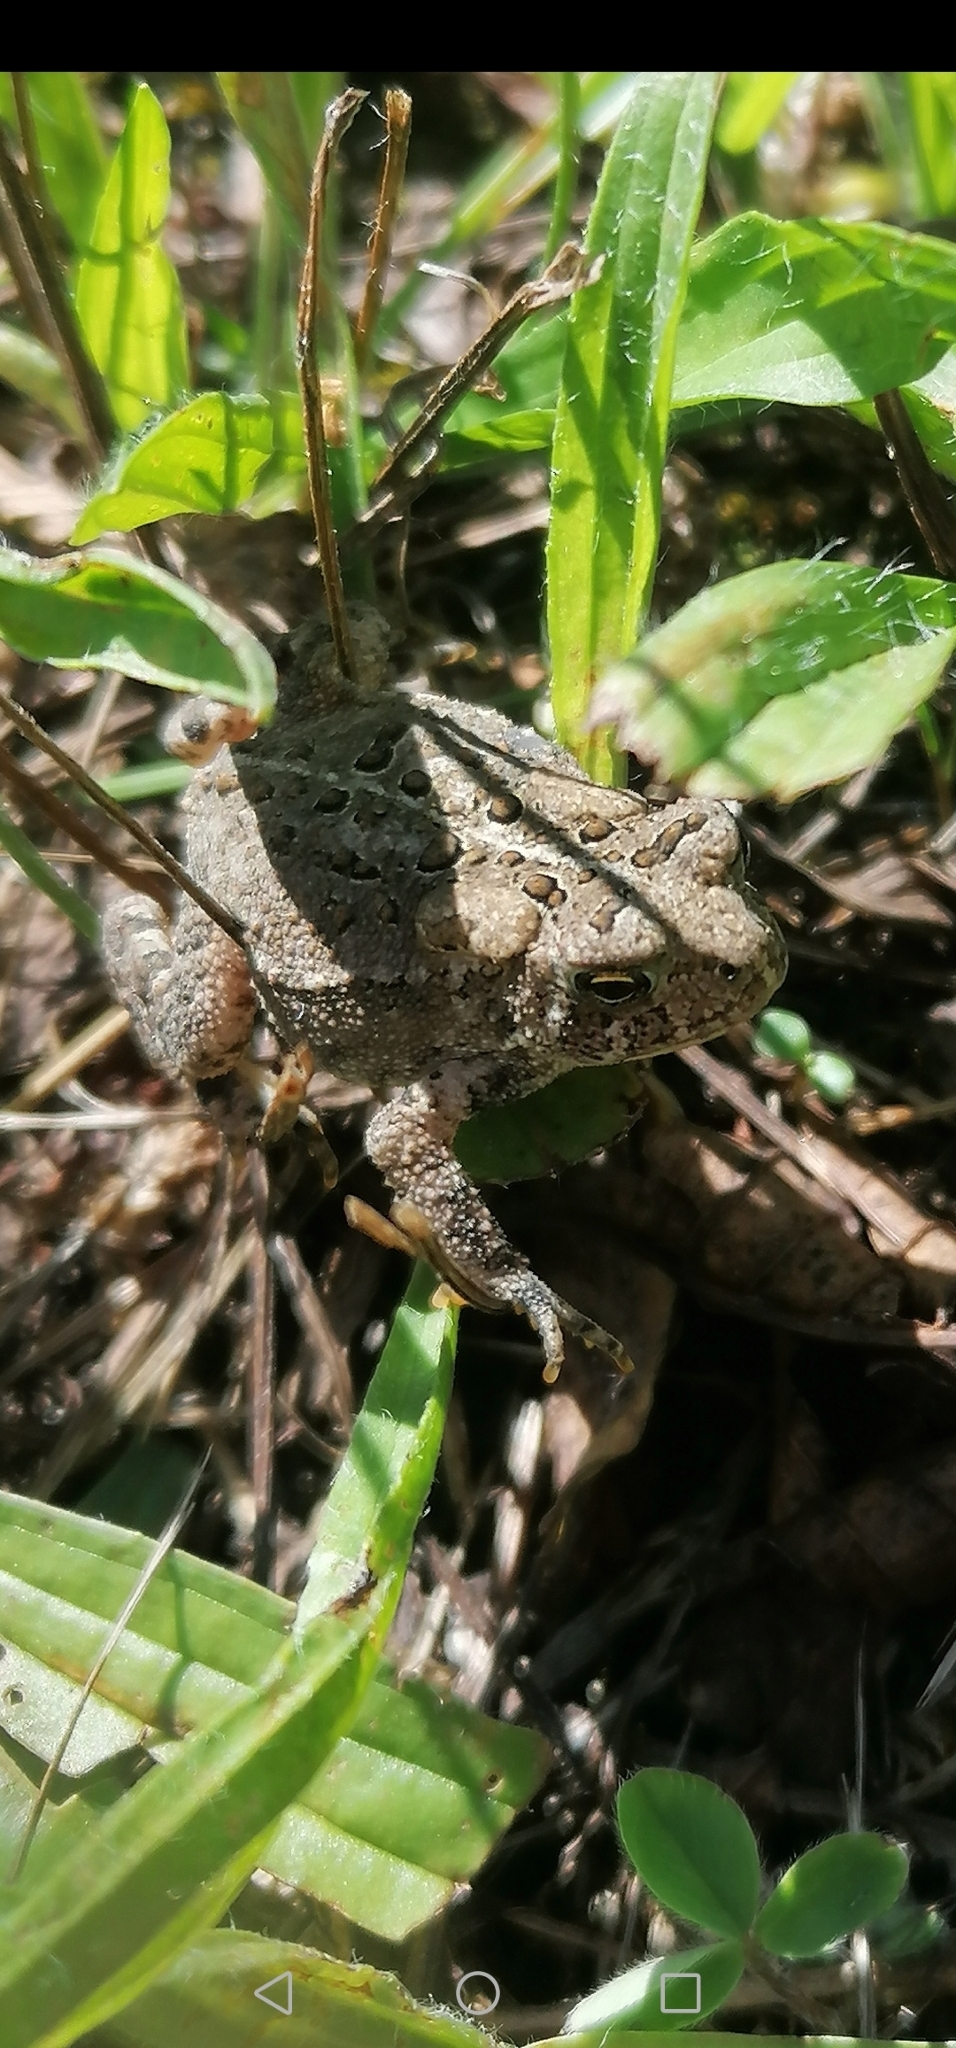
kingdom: Animalia
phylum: Chordata
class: Amphibia
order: Anura
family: Bufonidae
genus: Anaxyrus
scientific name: Anaxyrus americanus
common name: American toad
